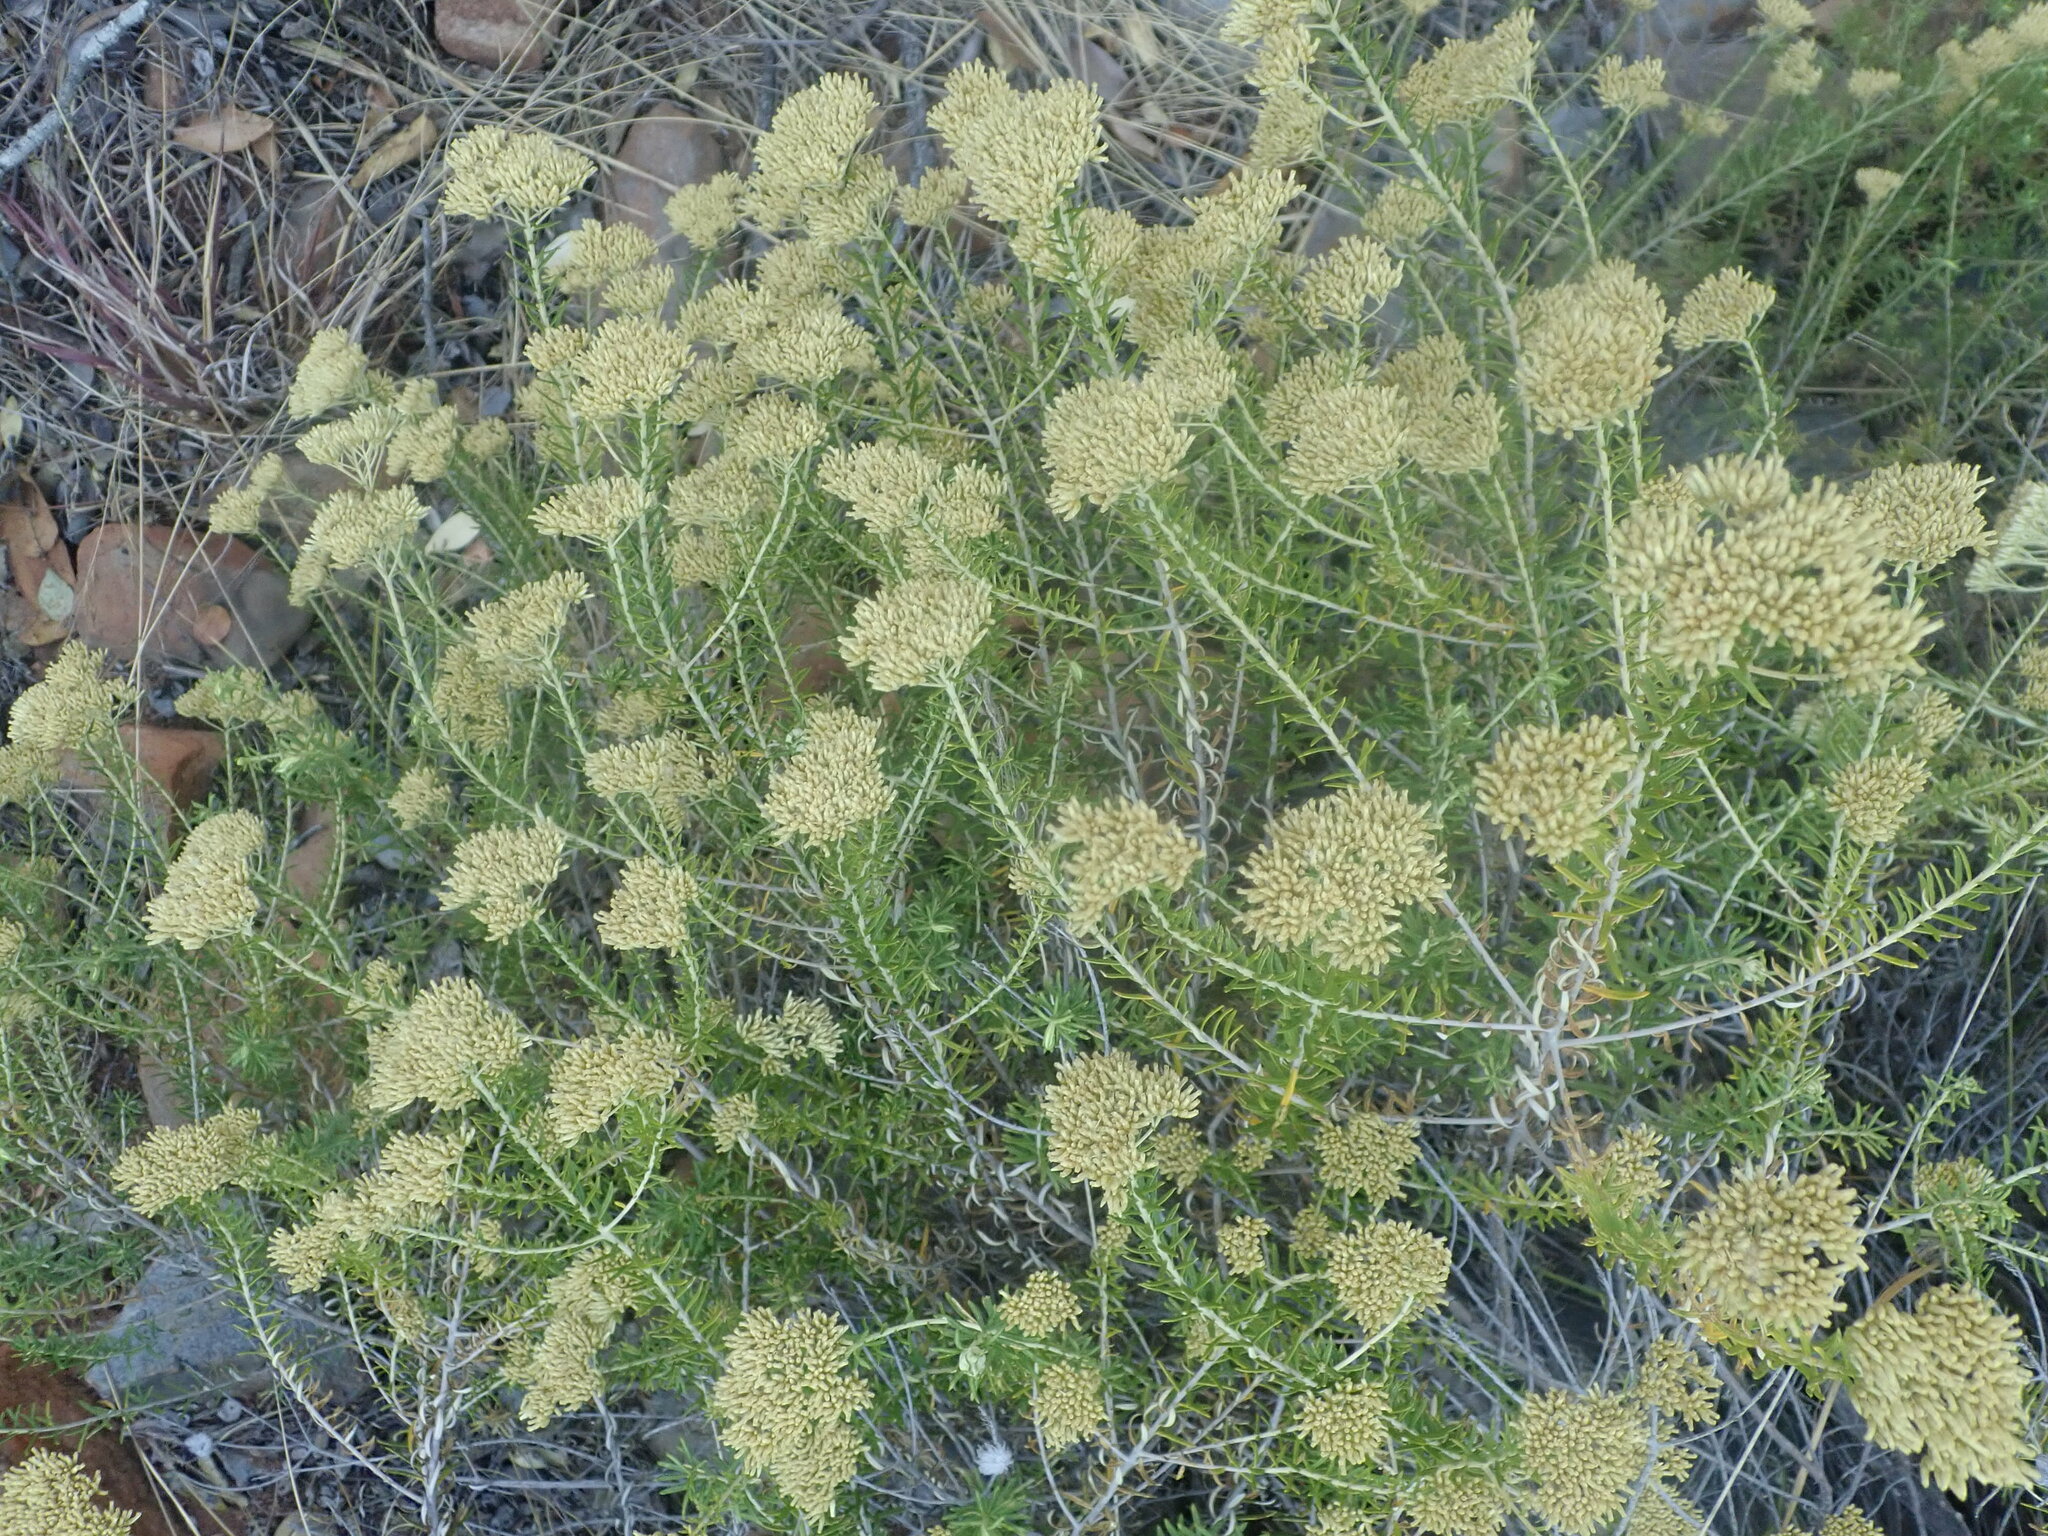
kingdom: Plantae
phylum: Tracheophyta
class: Magnoliopsida
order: Asterales
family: Asteraceae
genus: Helichrysum
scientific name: Helichrysum kraussii
